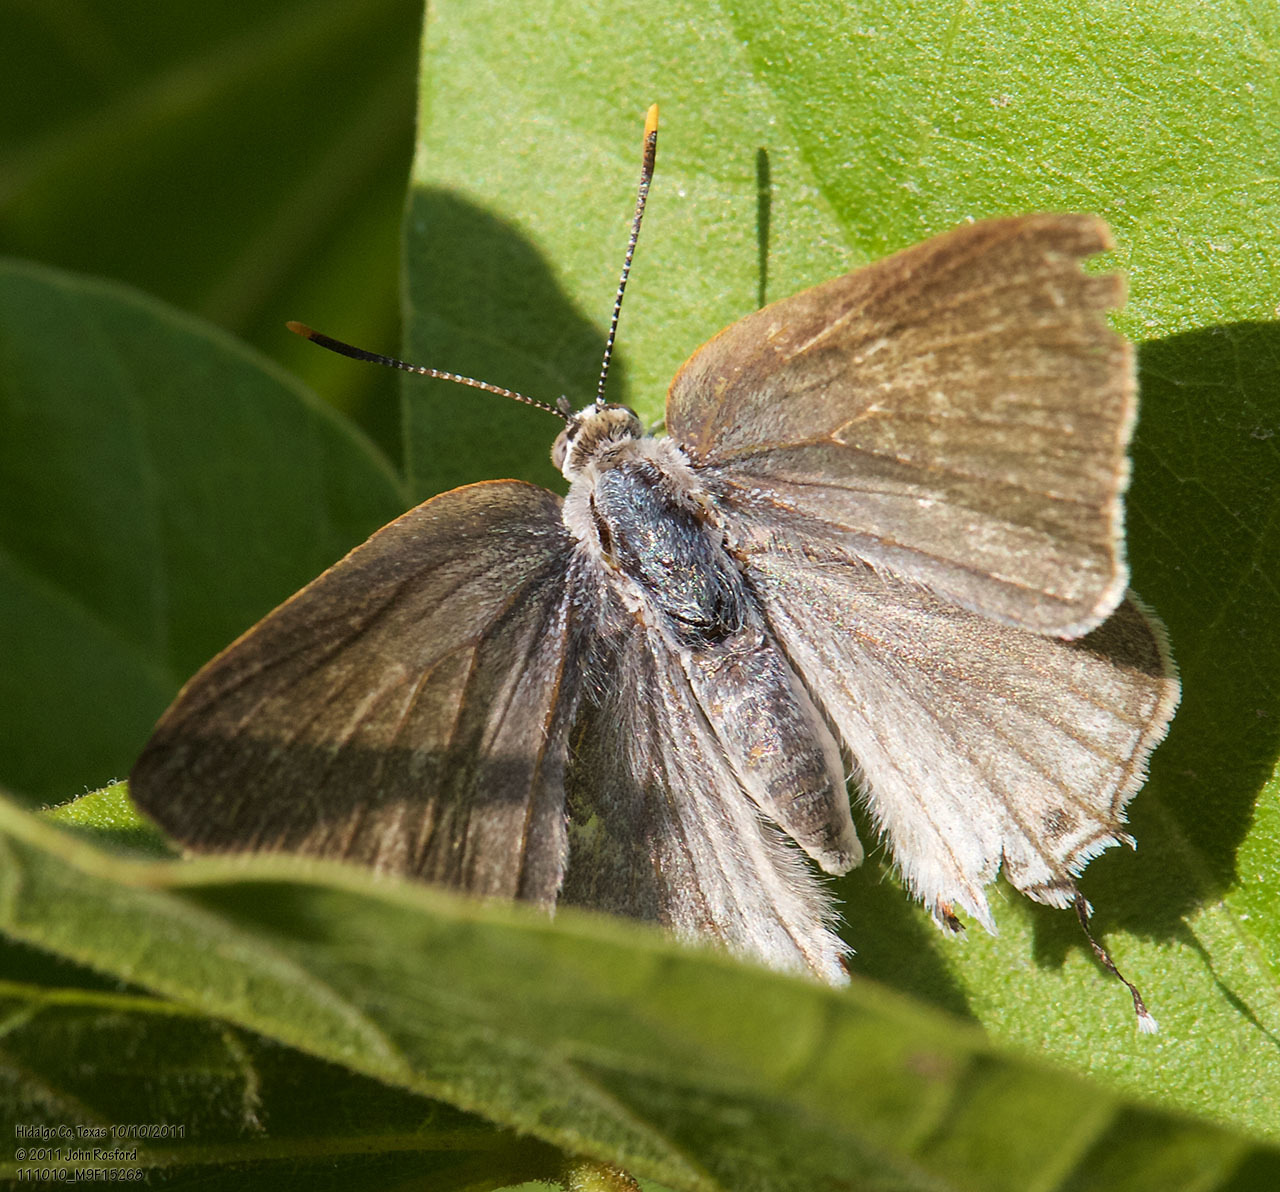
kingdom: Animalia
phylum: Arthropoda
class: Insecta
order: Lepidoptera
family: Lycaenidae
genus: Thecla
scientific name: Thecla marius
